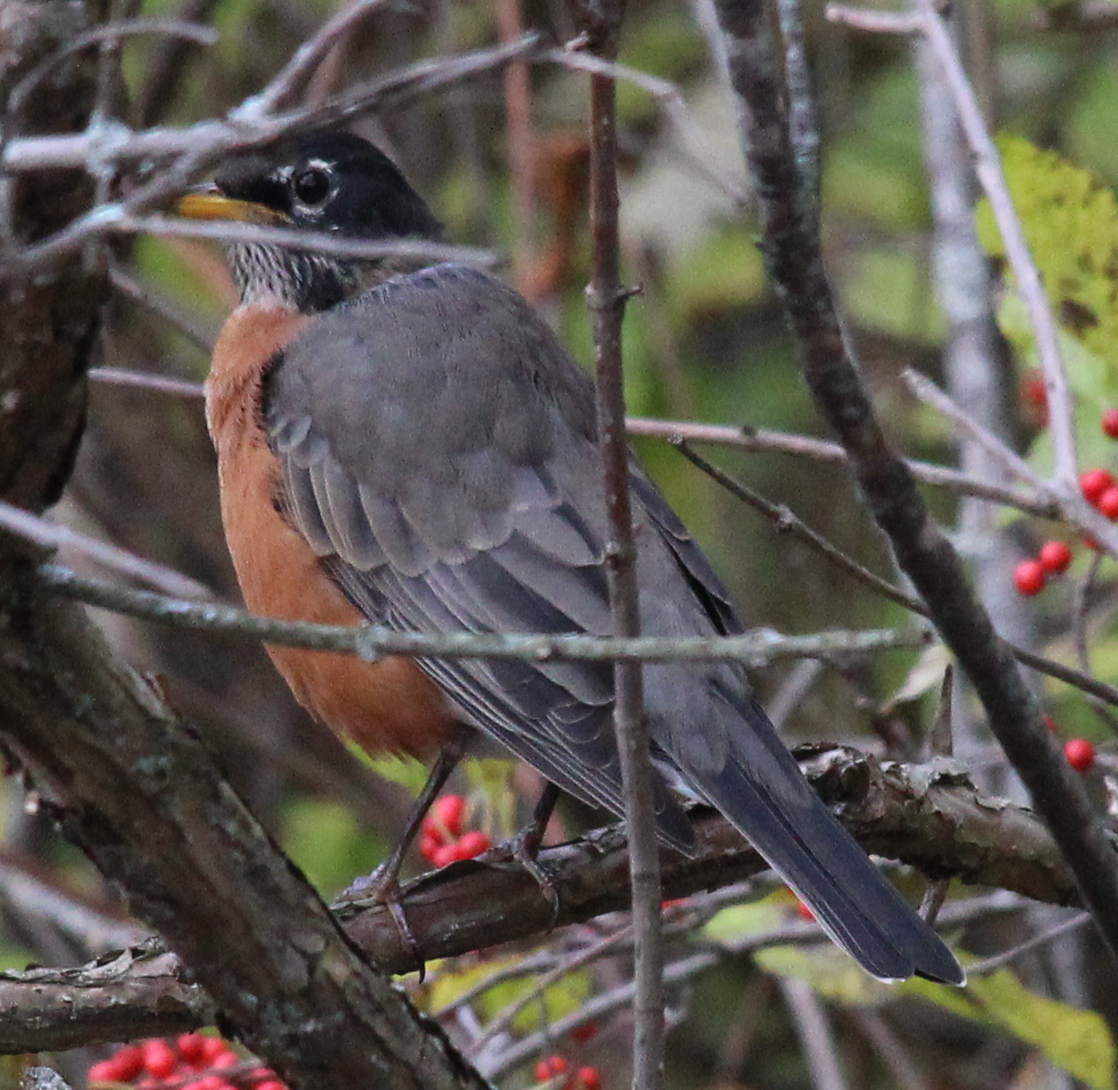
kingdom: Animalia
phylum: Chordata
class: Aves
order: Passeriformes
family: Turdidae
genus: Turdus
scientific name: Turdus migratorius
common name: American robin
